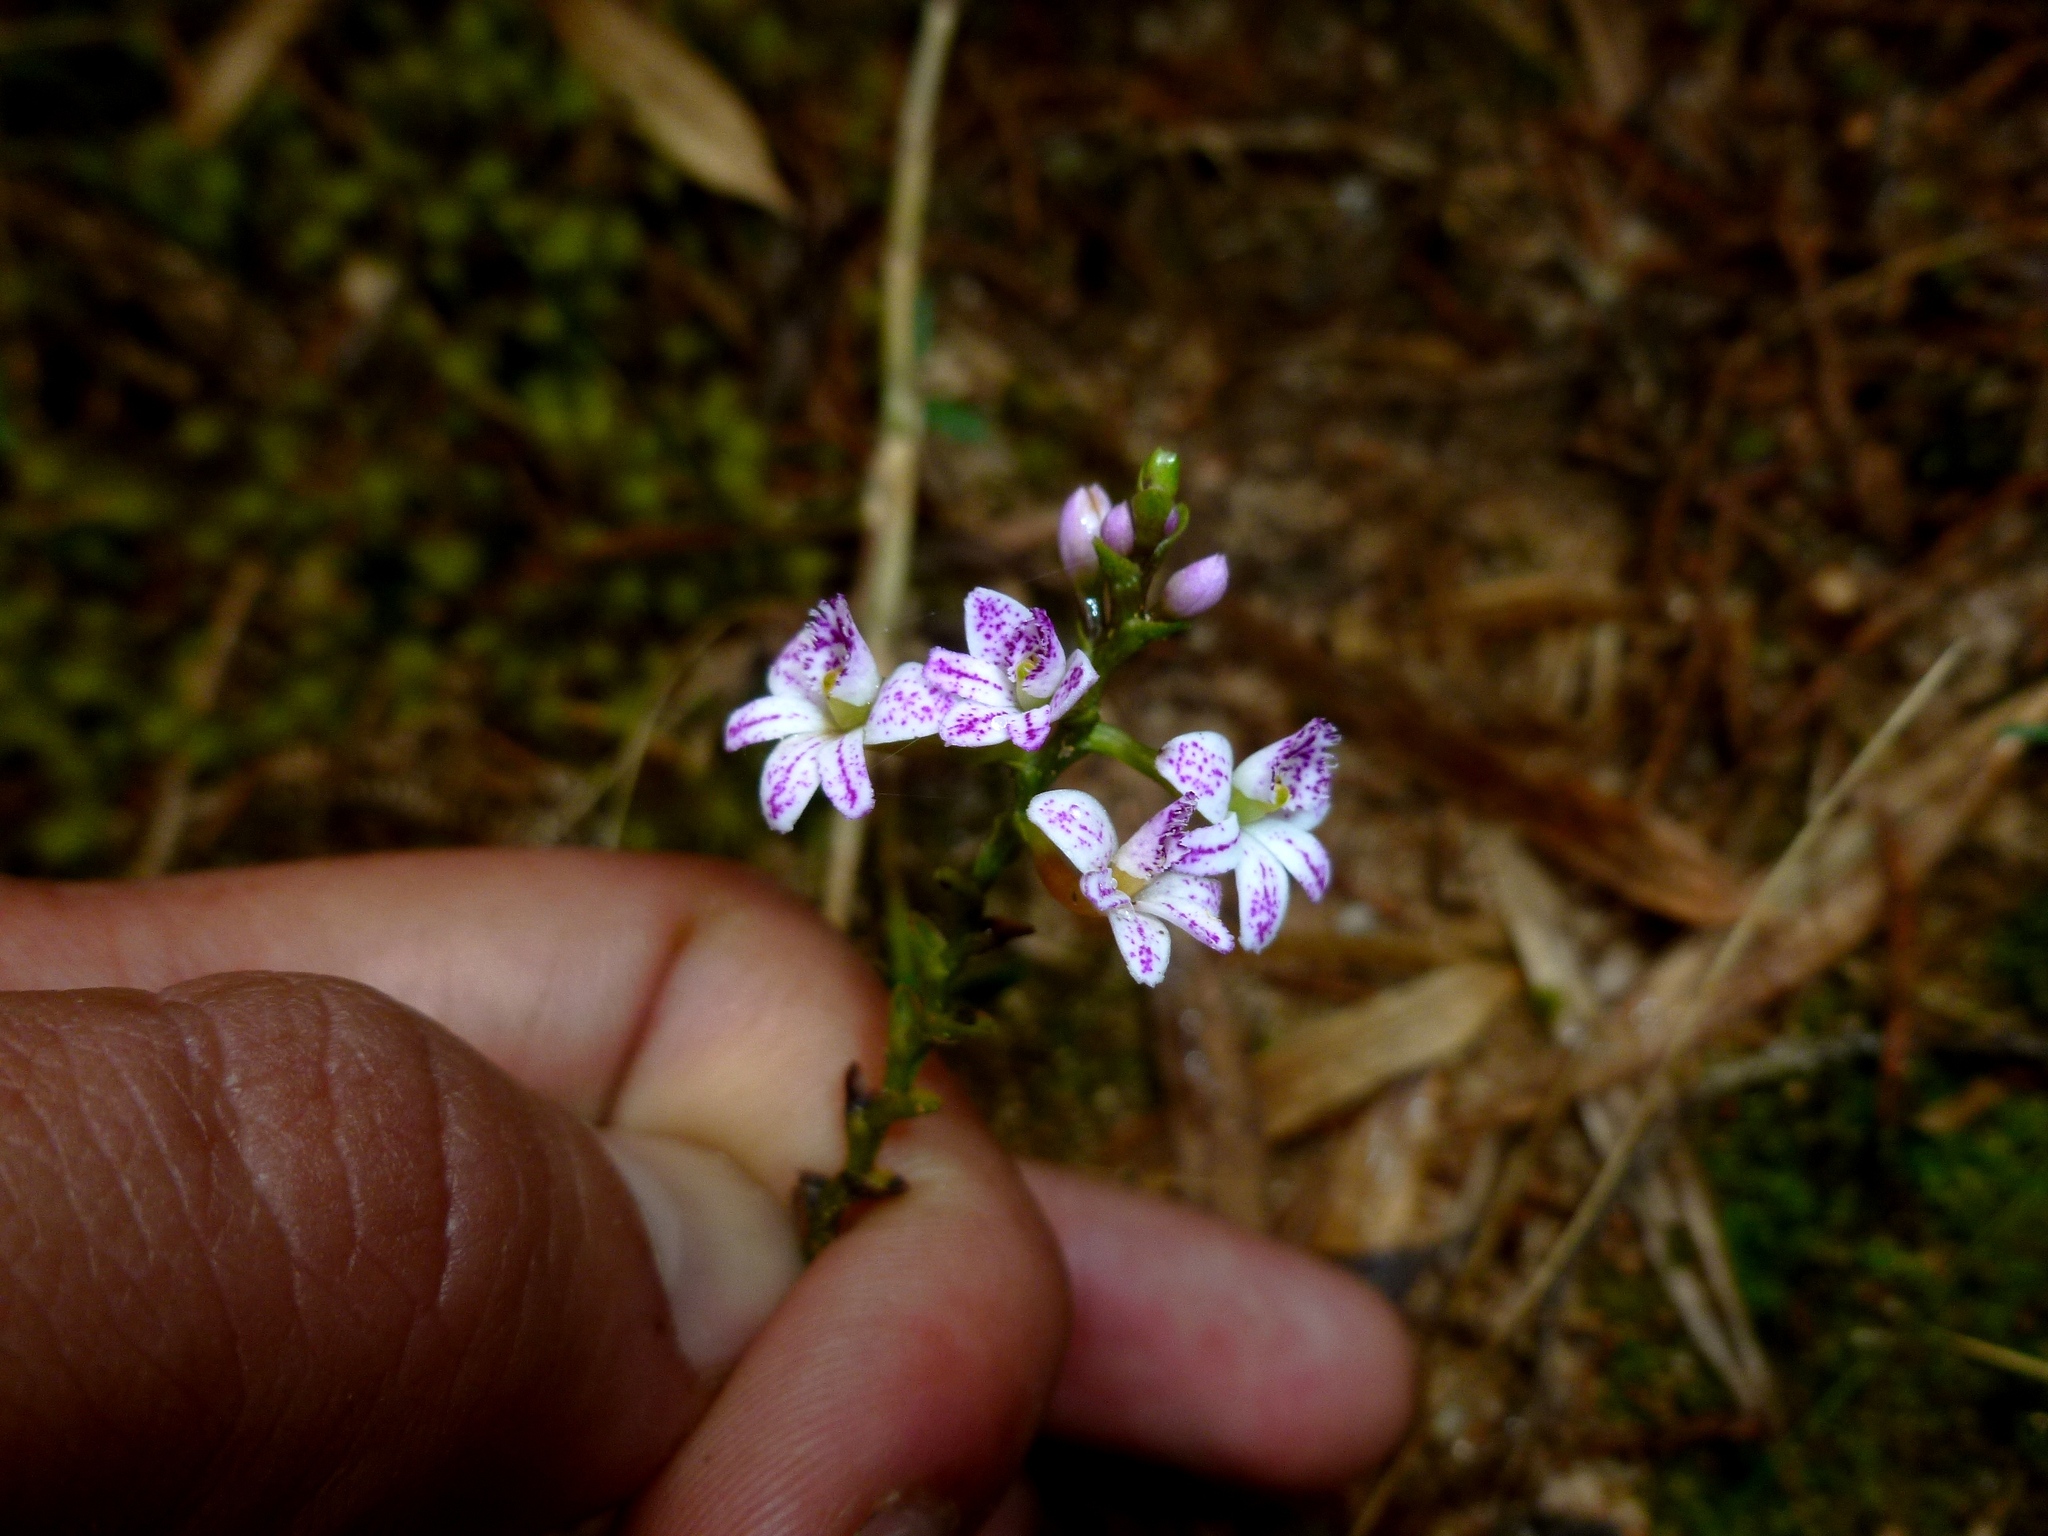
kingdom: Plantae
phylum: Tracheophyta
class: Liliopsida
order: Asparagales
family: Orchidaceae
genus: Epidendrum
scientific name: Epidendrum fimbriatum
